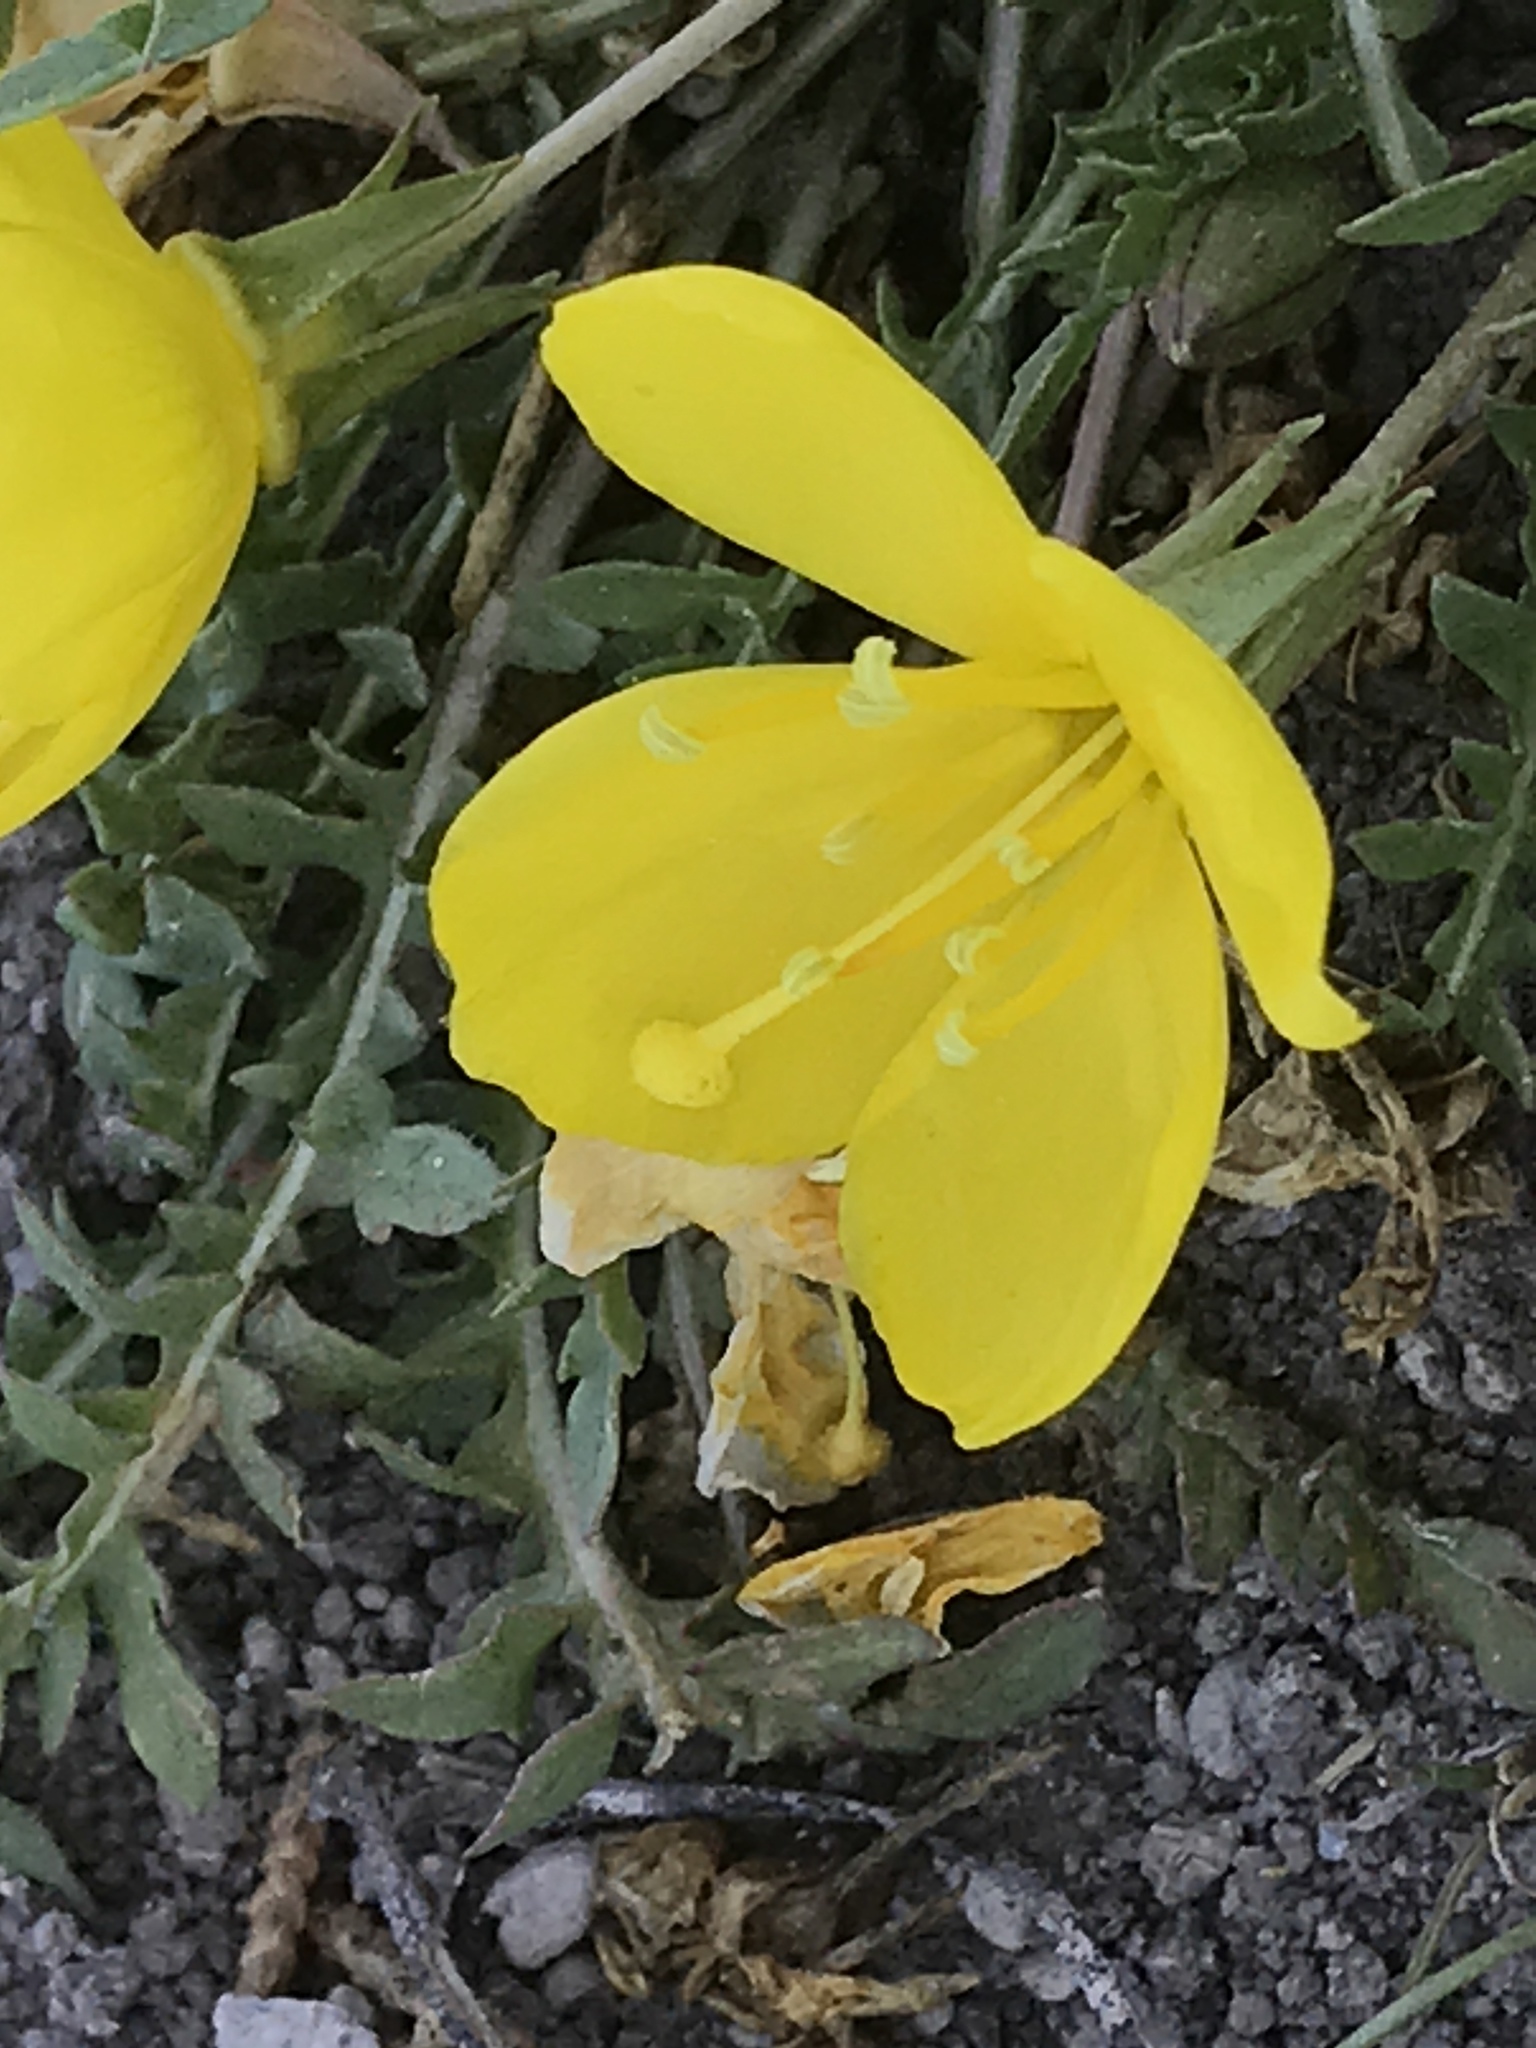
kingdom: Plantae
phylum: Tracheophyta
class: Magnoliopsida
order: Myrtales
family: Onagraceae
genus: Taraxia
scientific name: Taraxia tanacetifolia
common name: Tansyleaf evening primrose
